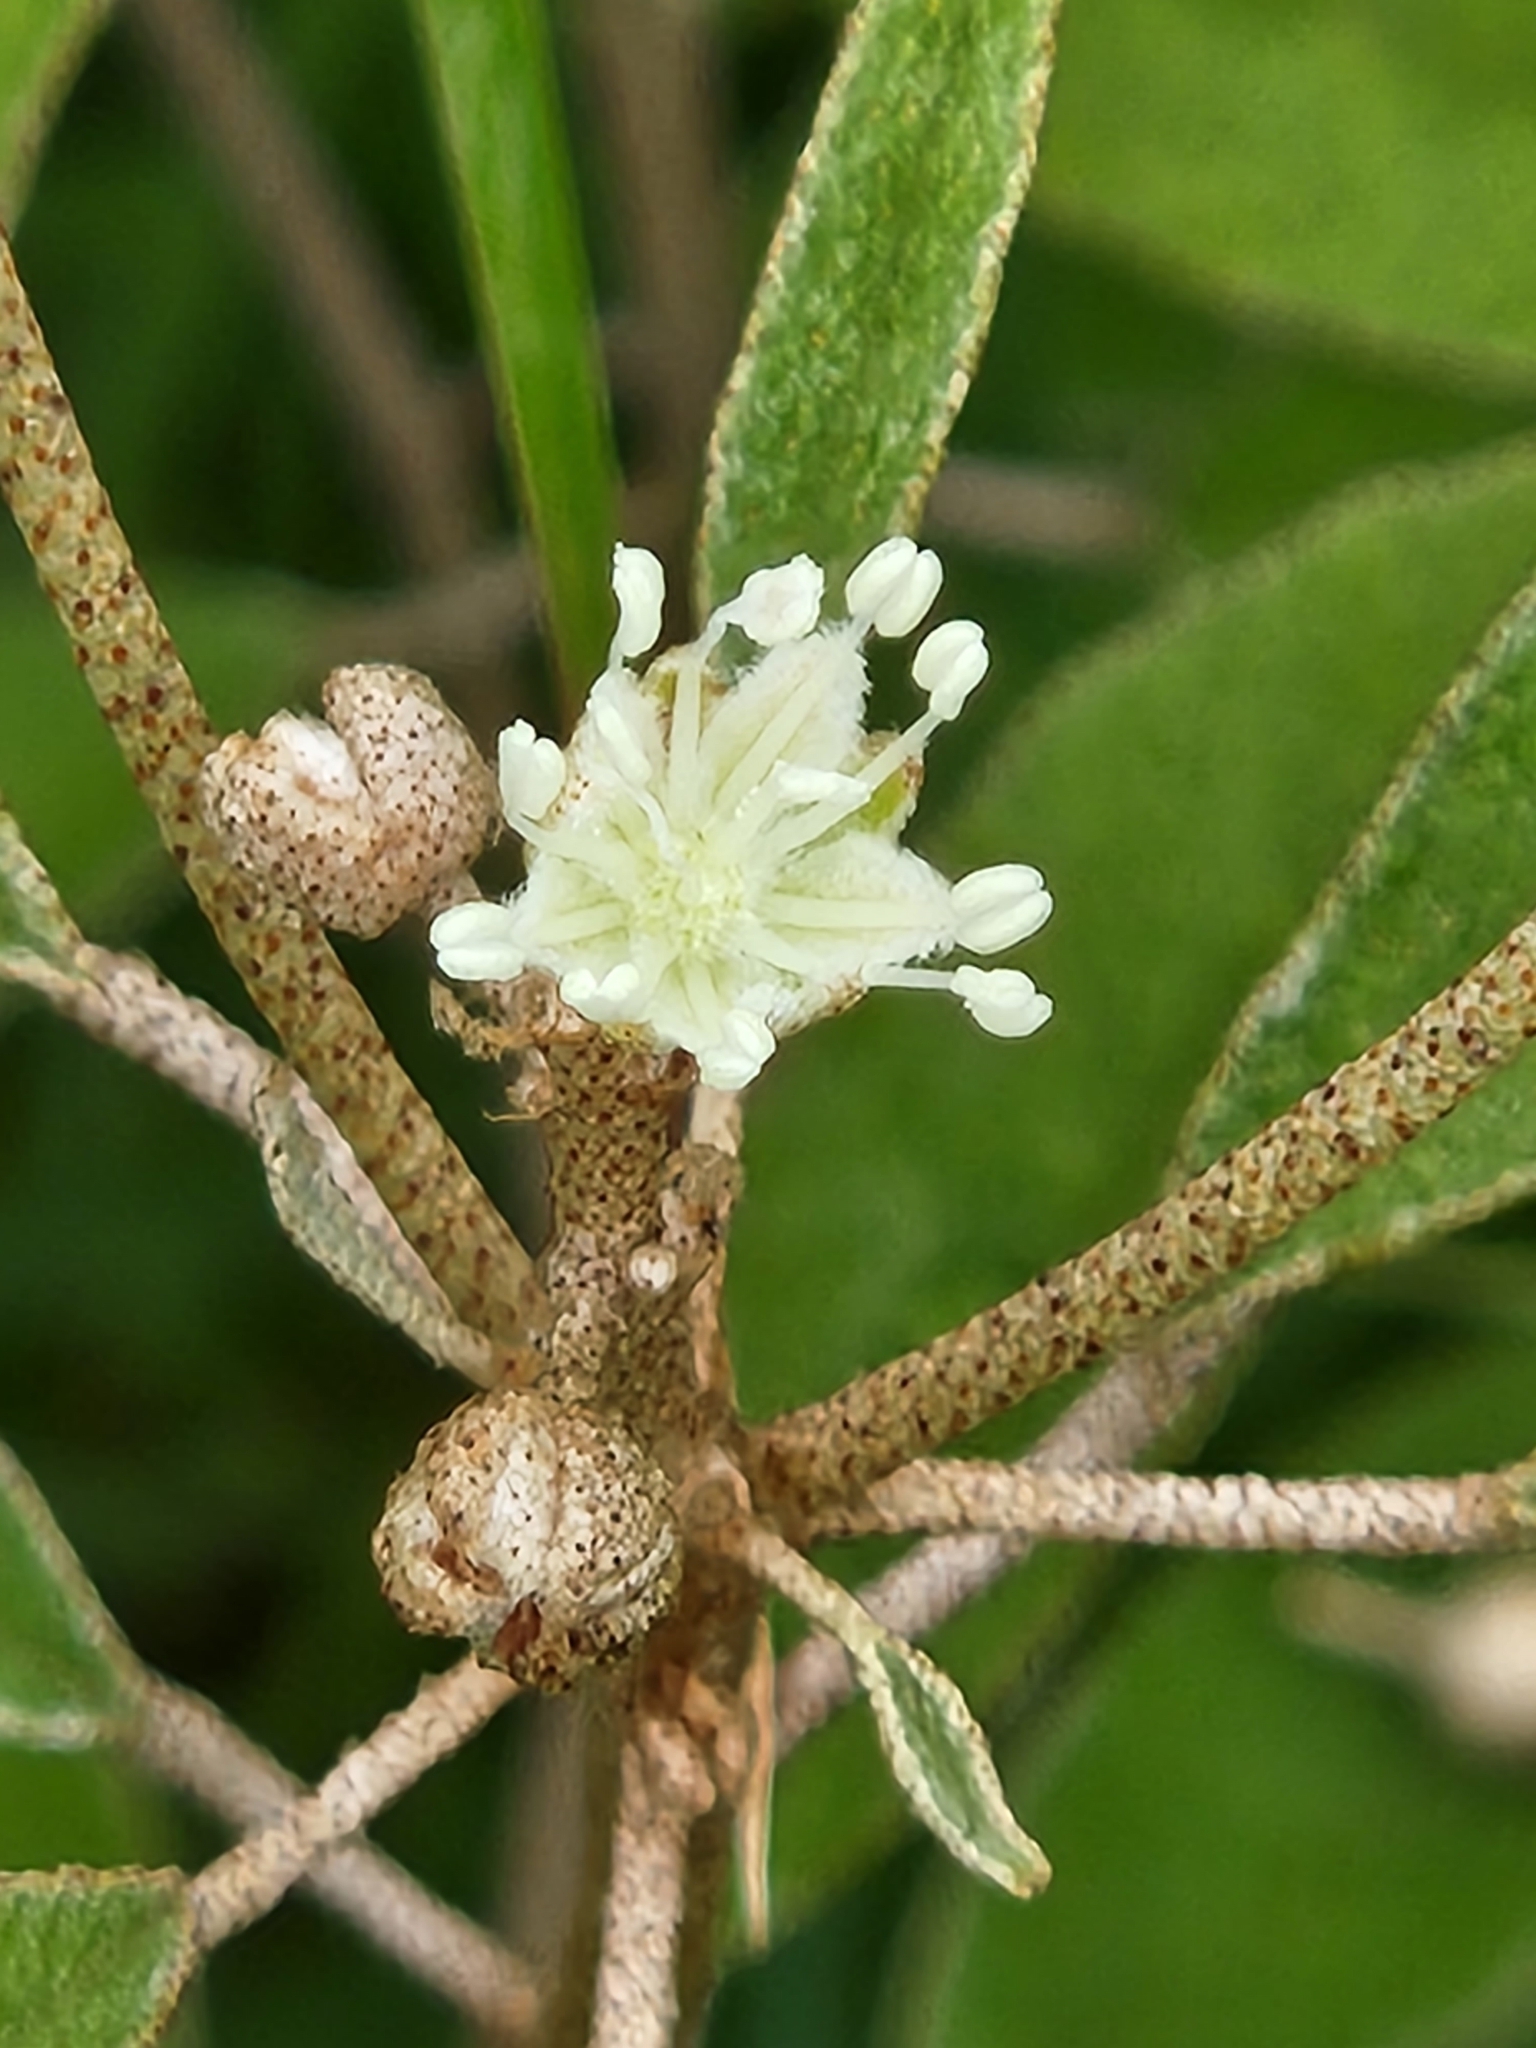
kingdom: Plantae
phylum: Tracheophyta
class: Magnoliopsida
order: Malpighiales
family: Euphorbiaceae
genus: Croton
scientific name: Croton argyranthemus
